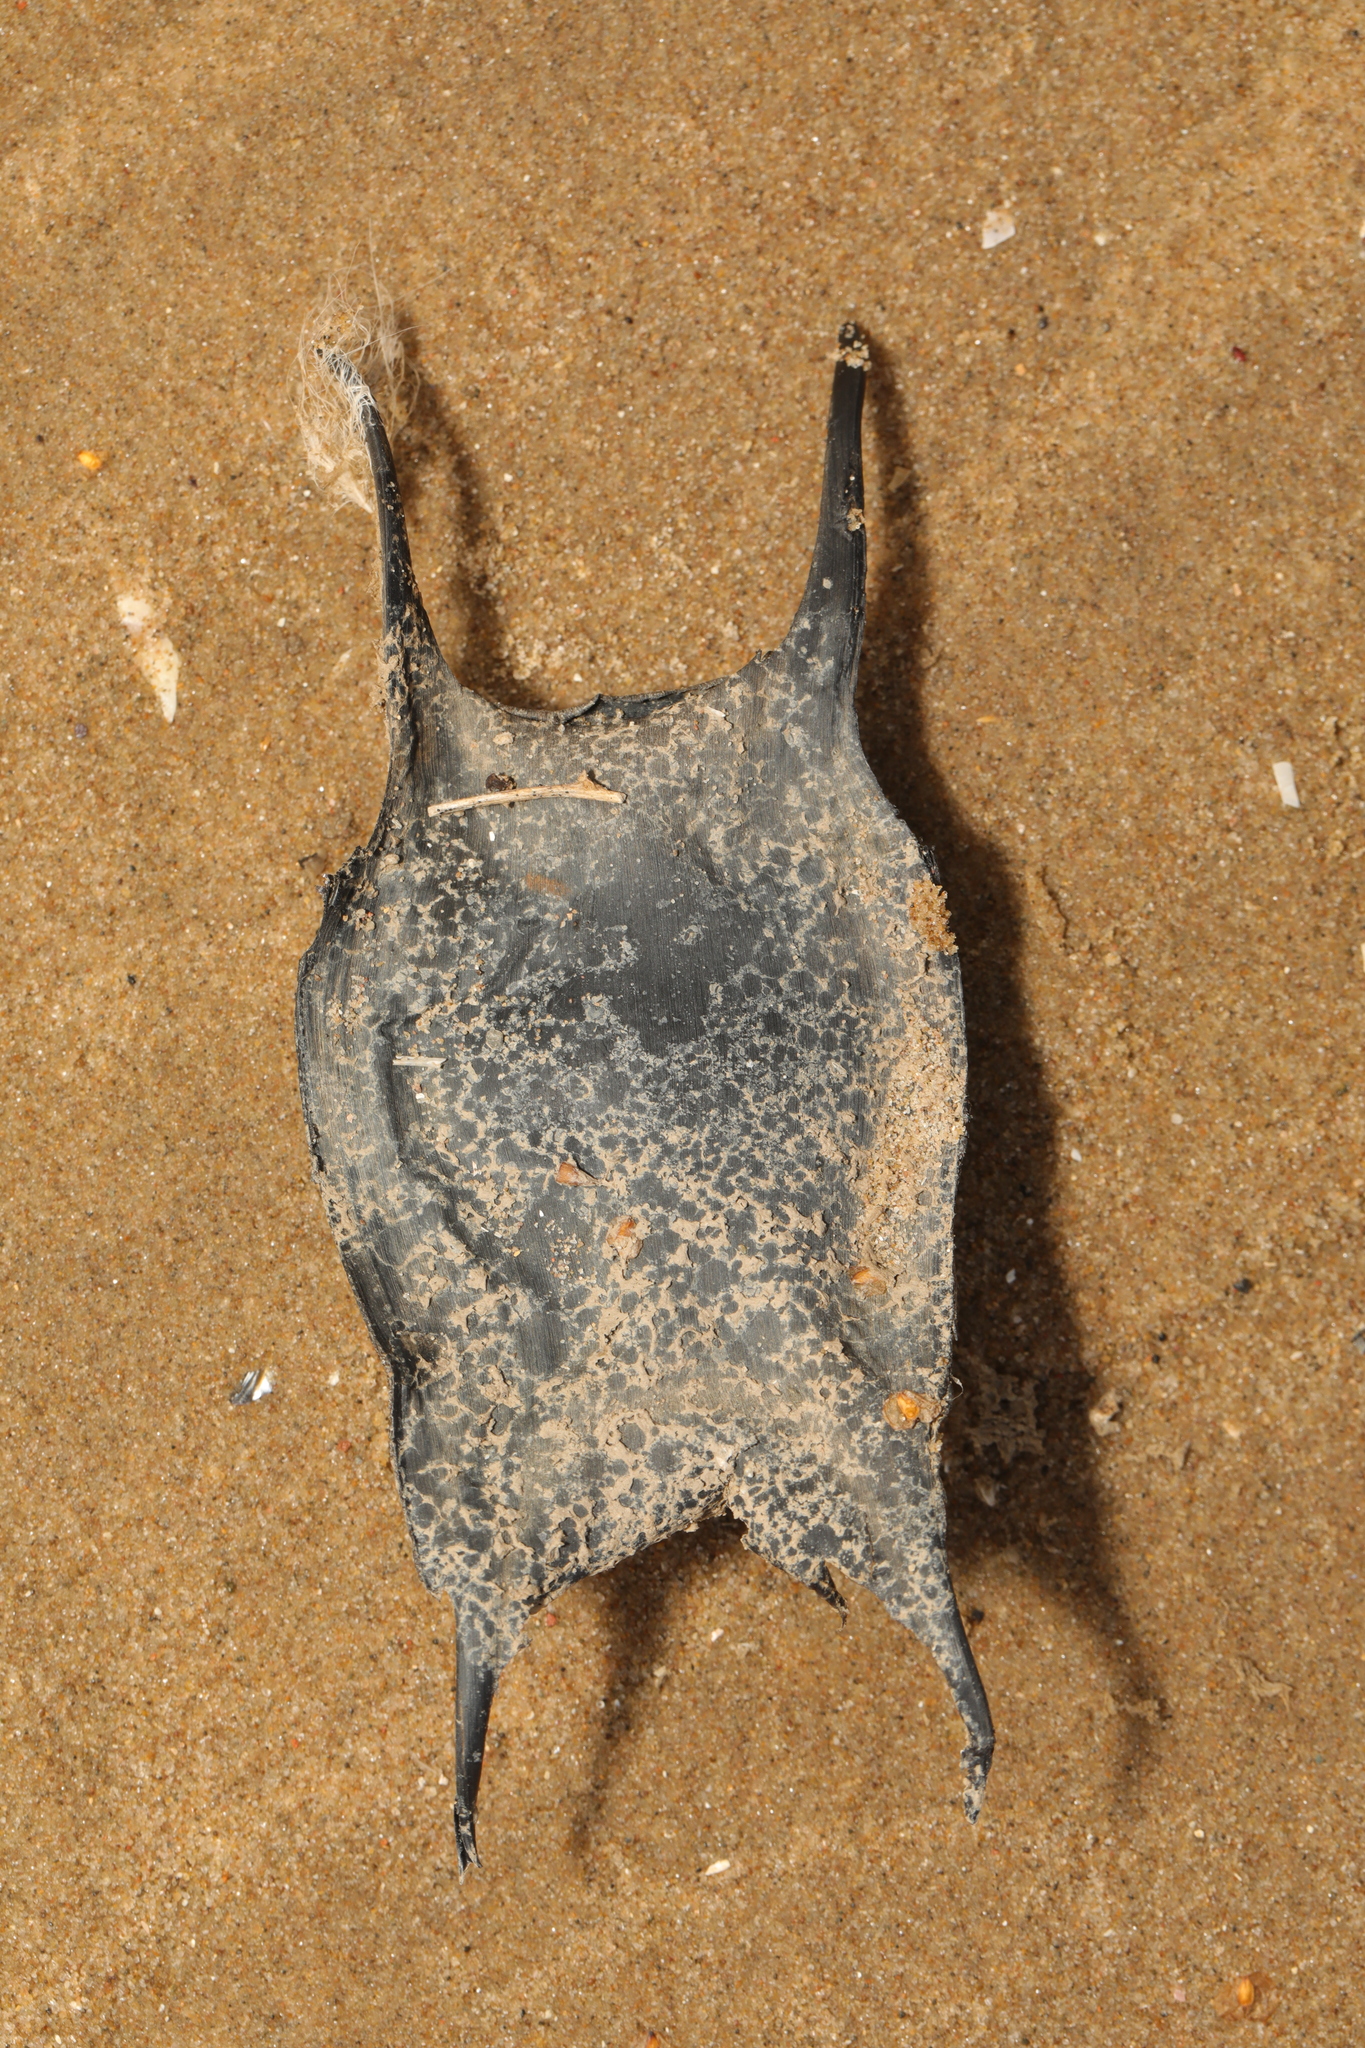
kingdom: Animalia
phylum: Chordata
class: Elasmobranchii
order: Rajiformes
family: Rajidae
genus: Raja
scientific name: Raja clavata
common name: Thornback ray
